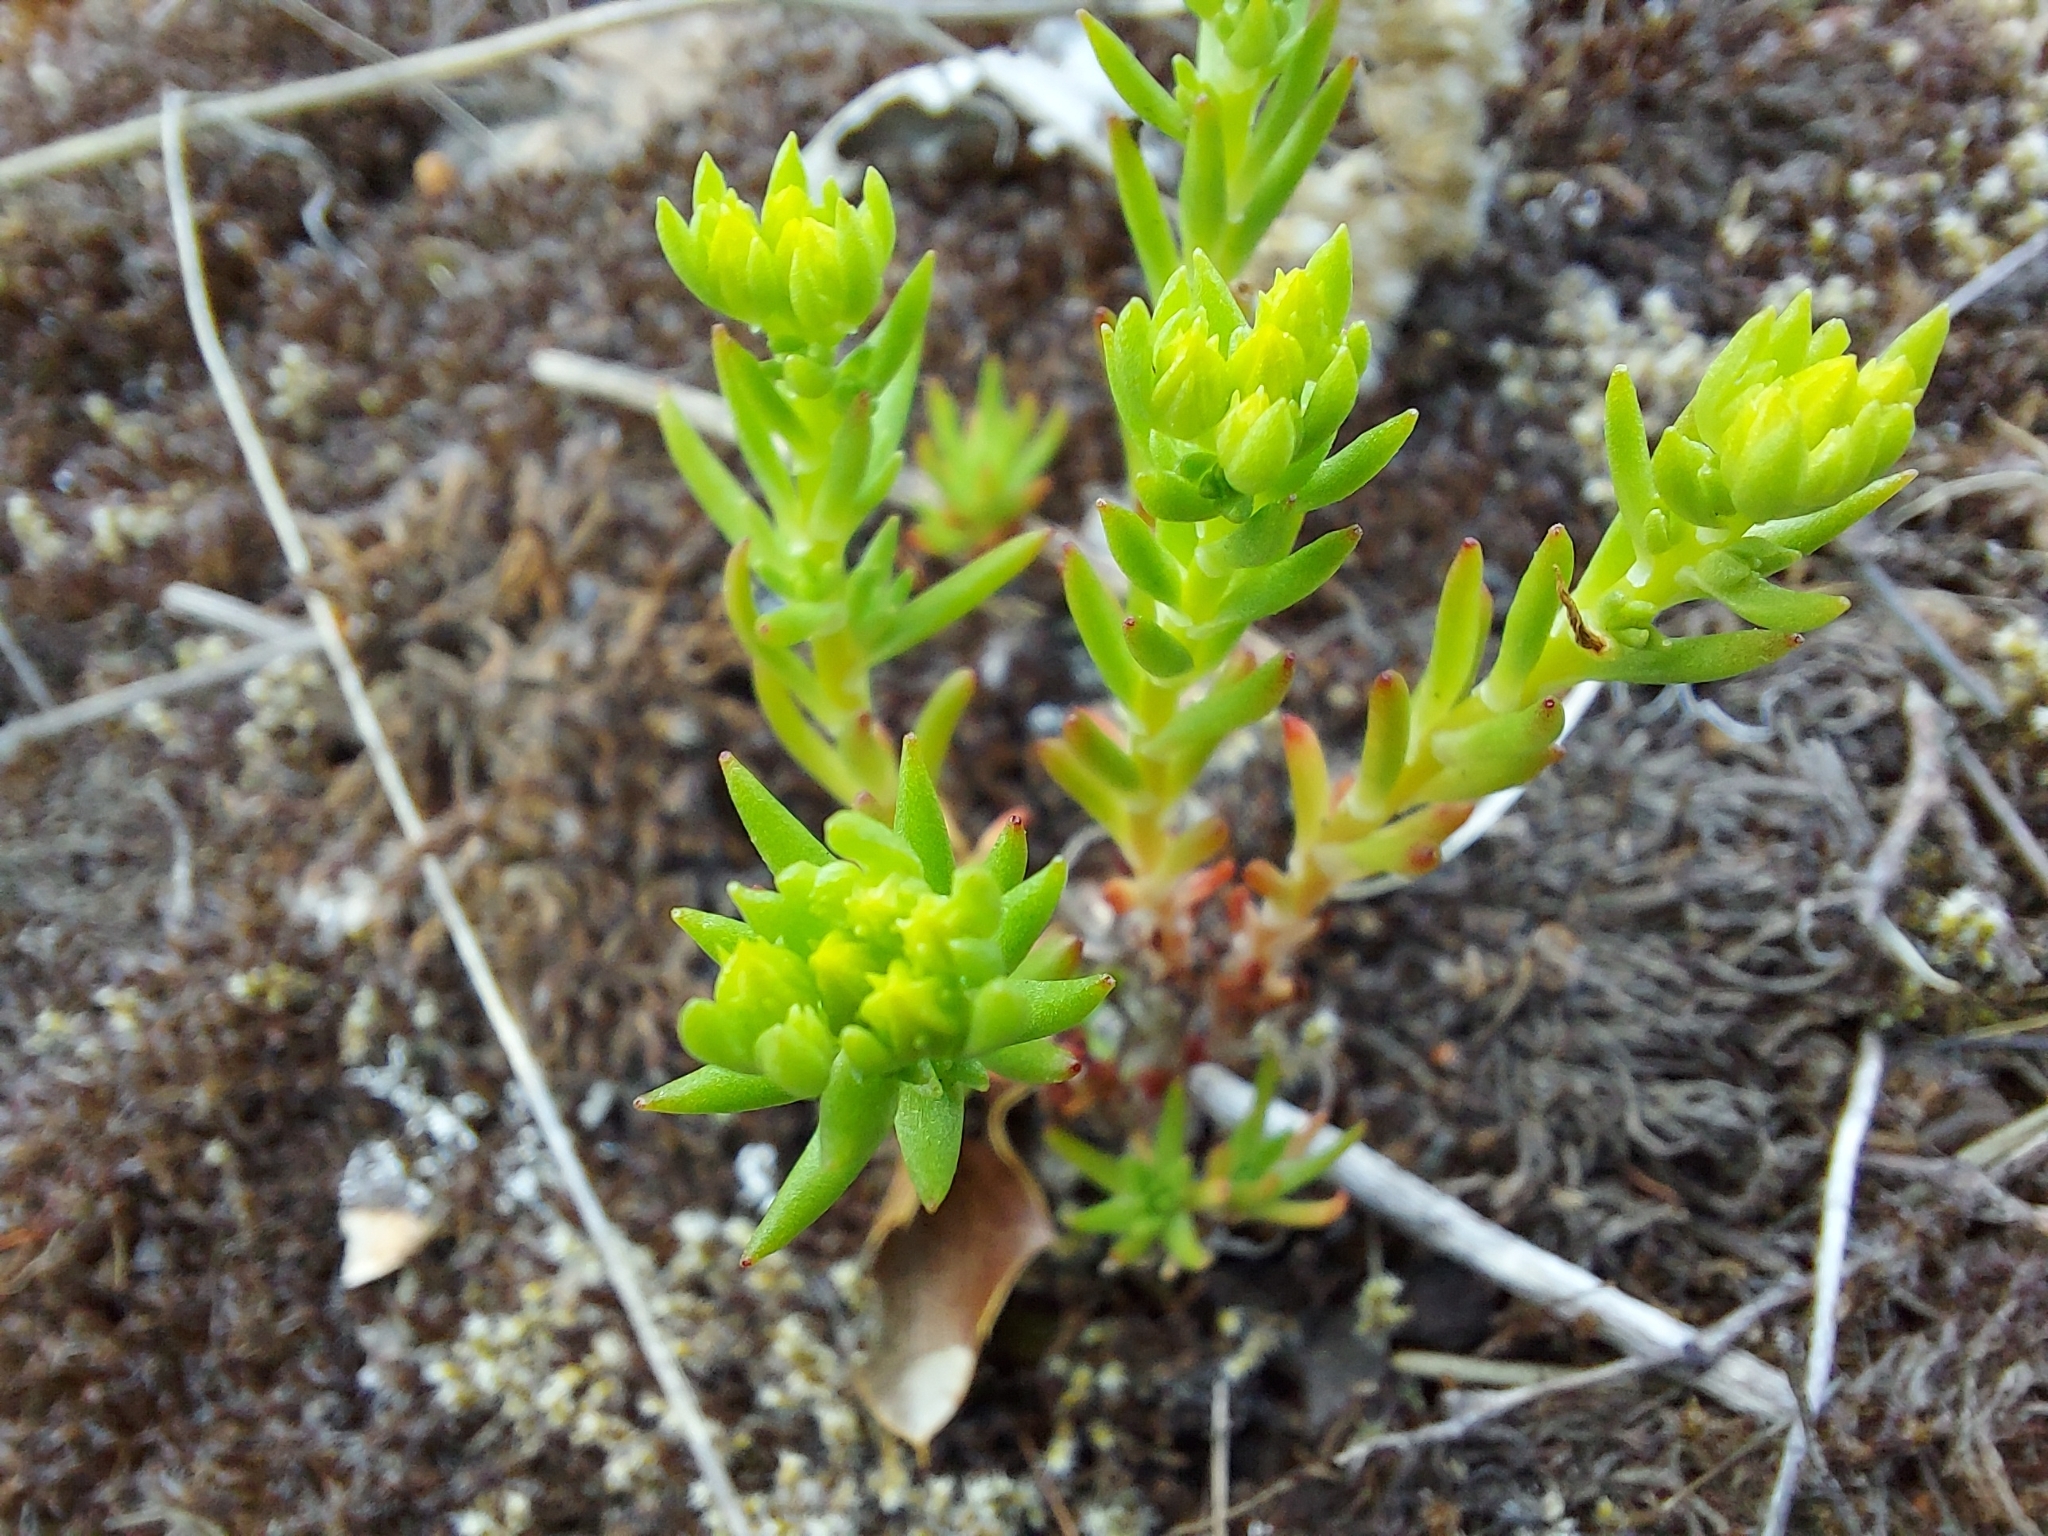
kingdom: Plantae
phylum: Tracheophyta
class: Magnoliopsida
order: Saxifragales
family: Crassulaceae
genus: Sedum
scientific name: Sedum stenopetalum
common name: Narrow-petaled stonecrop
